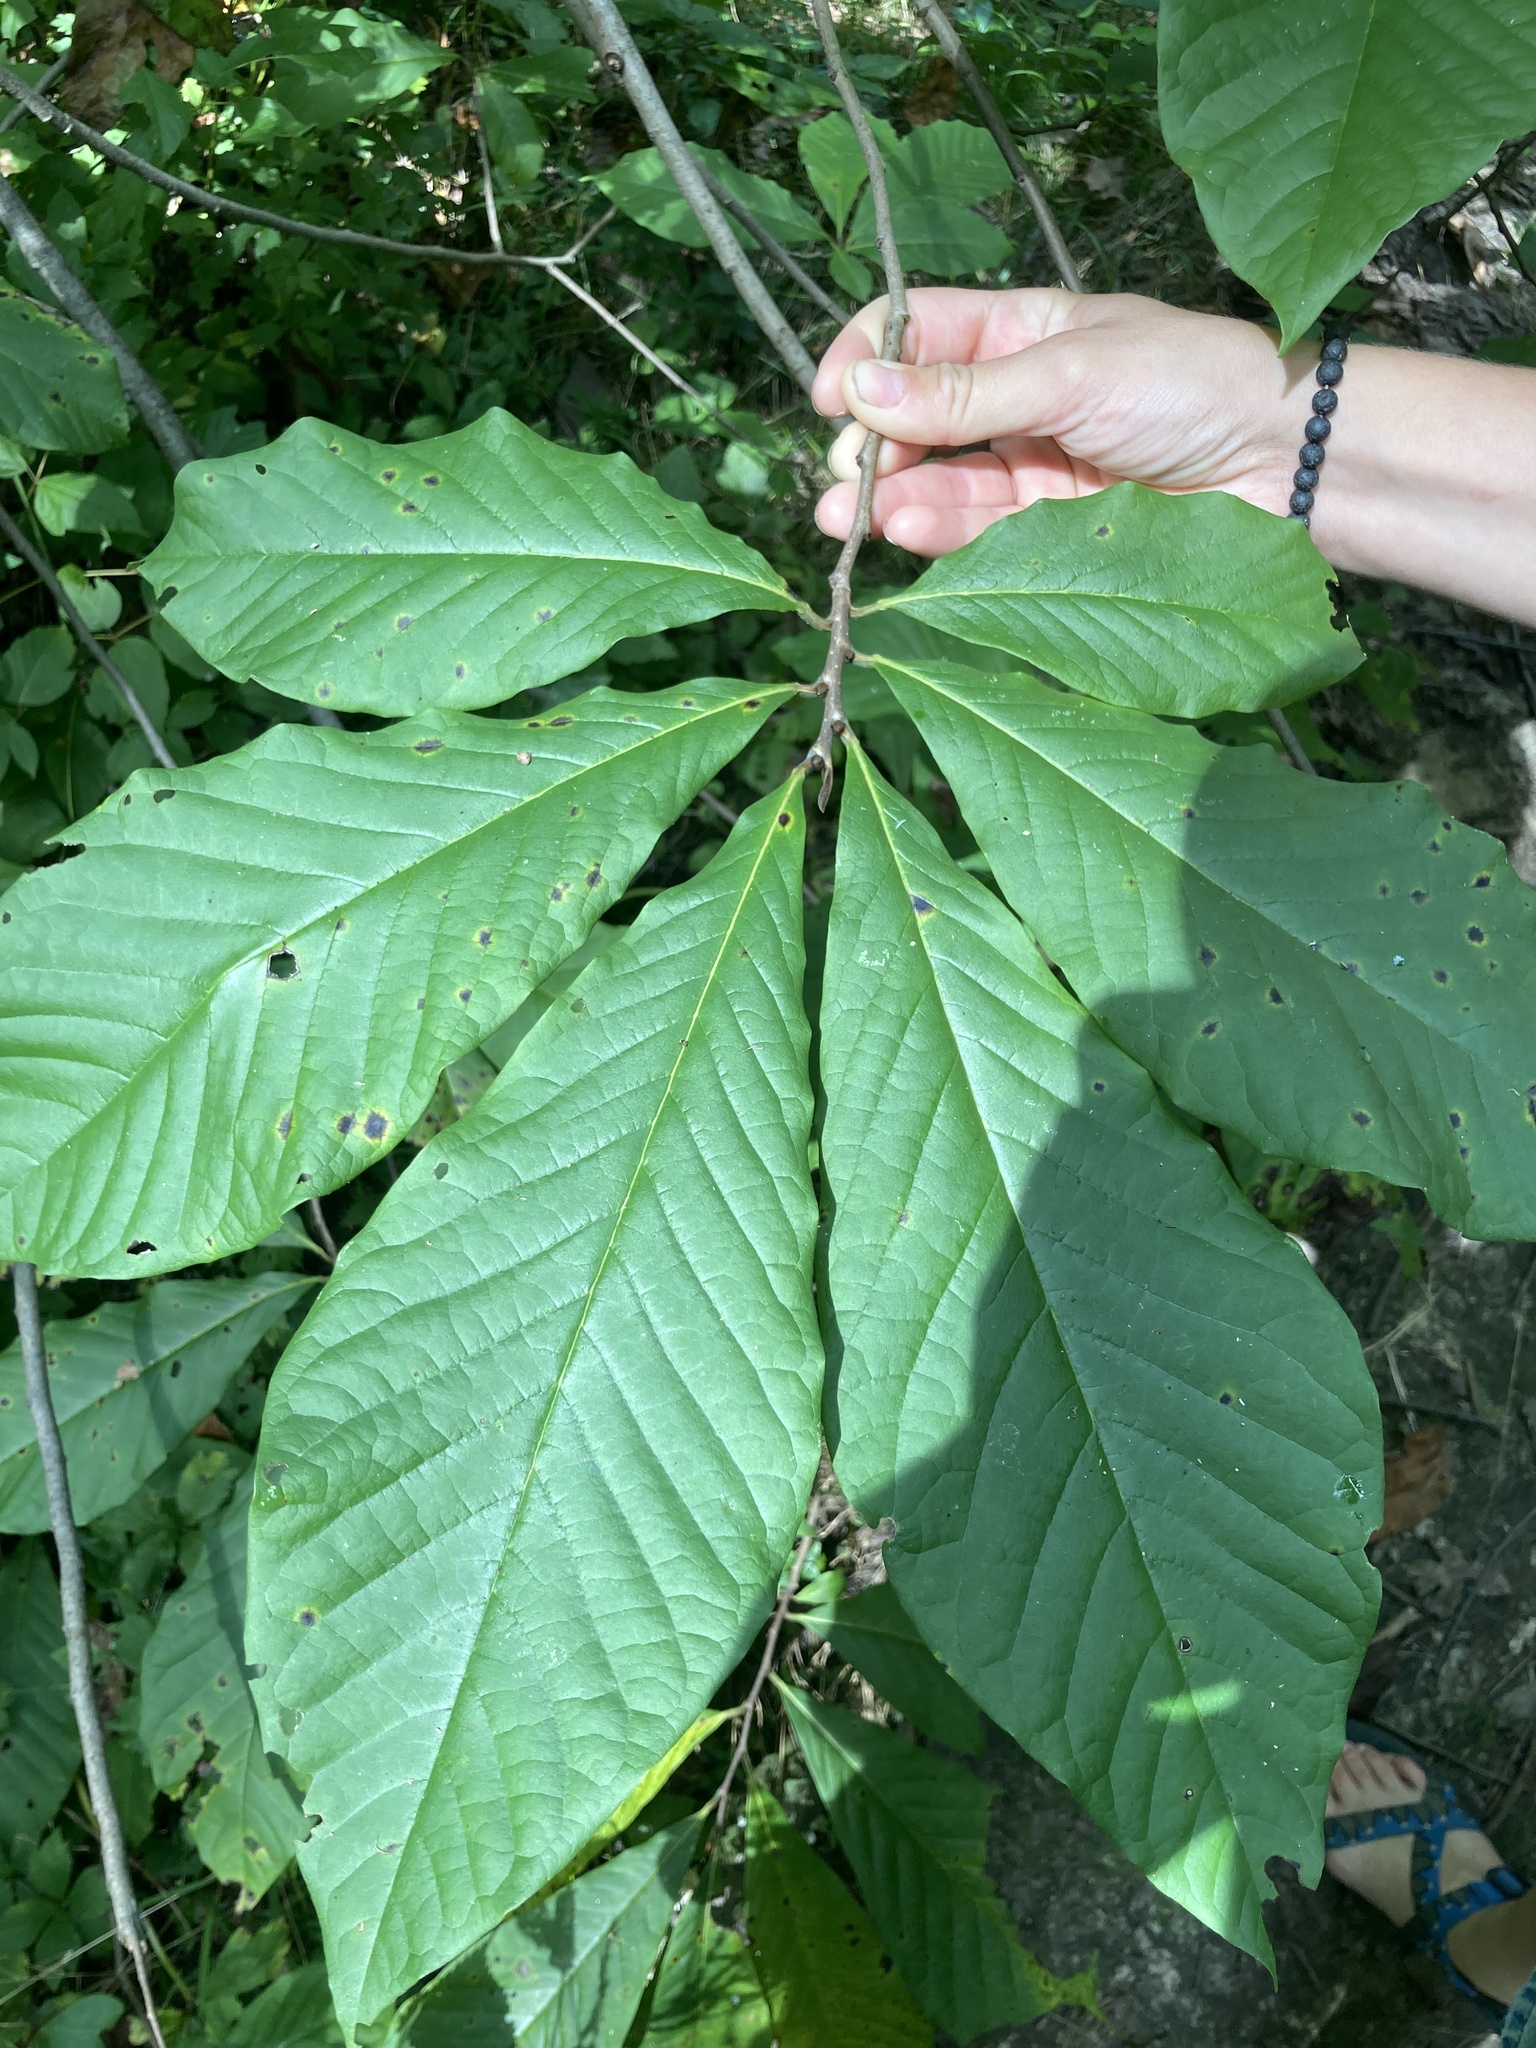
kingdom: Plantae
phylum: Tracheophyta
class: Magnoliopsida
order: Magnoliales
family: Annonaceae
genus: Asimina
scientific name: Asimina triloba
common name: Dog-banana
